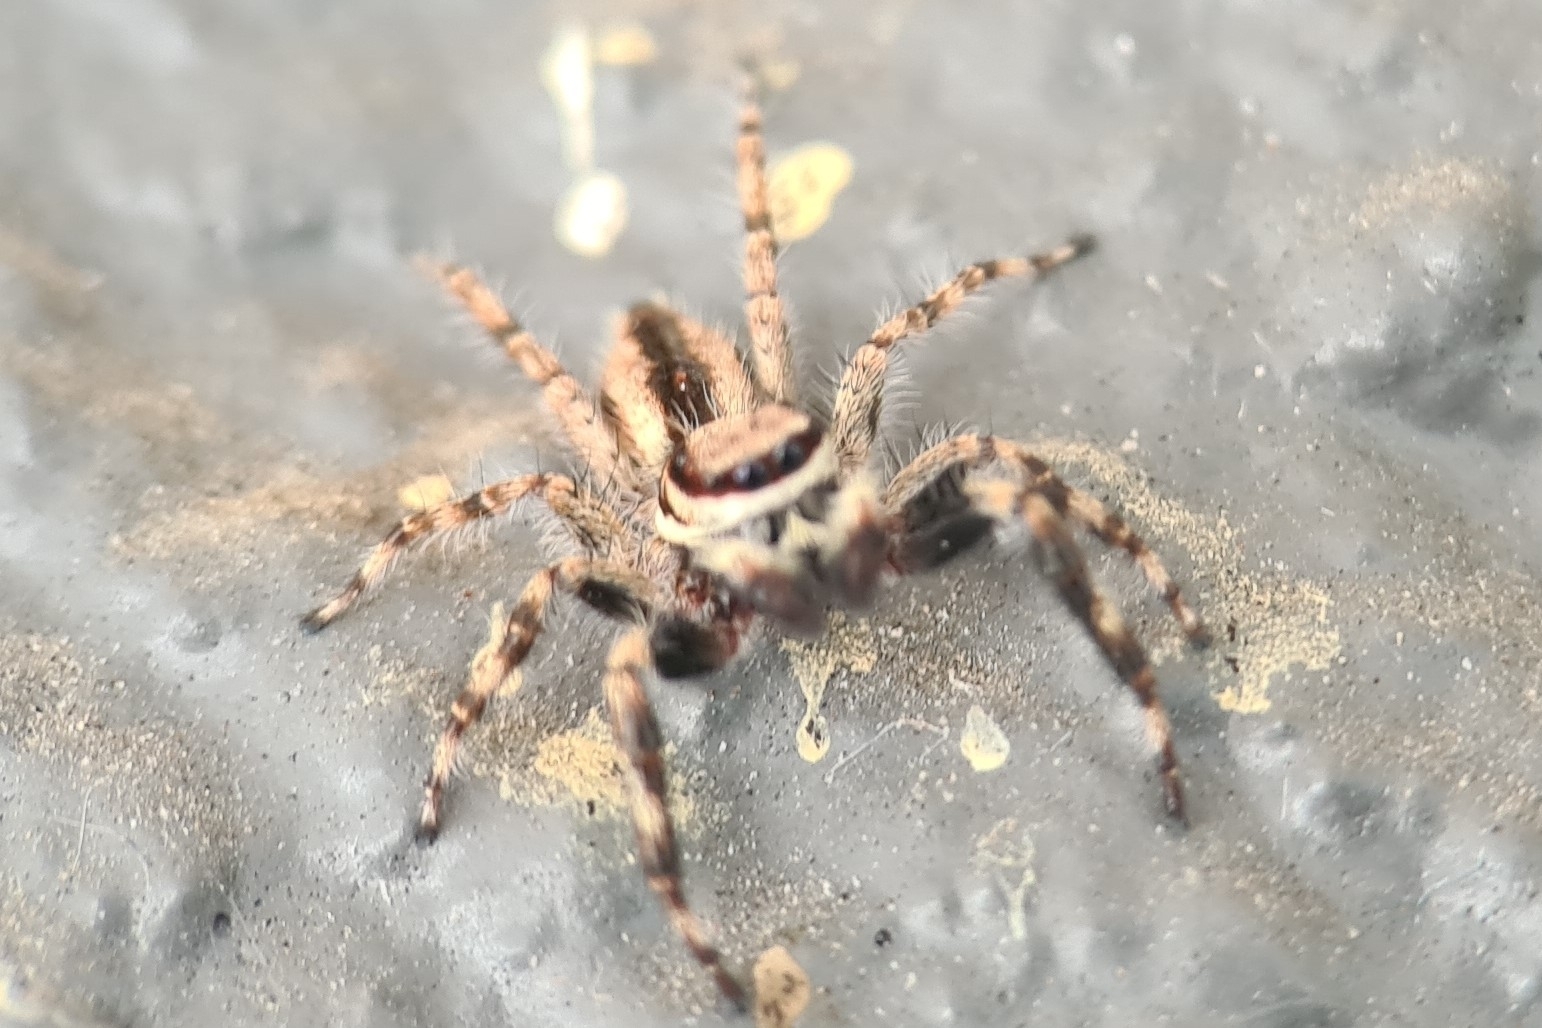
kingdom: Animalia
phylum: Arthropoda
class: Arachnida
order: Araneae
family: Salticidae
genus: Menemerus
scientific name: Menemerus bivittatus
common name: Gray wall jumper
